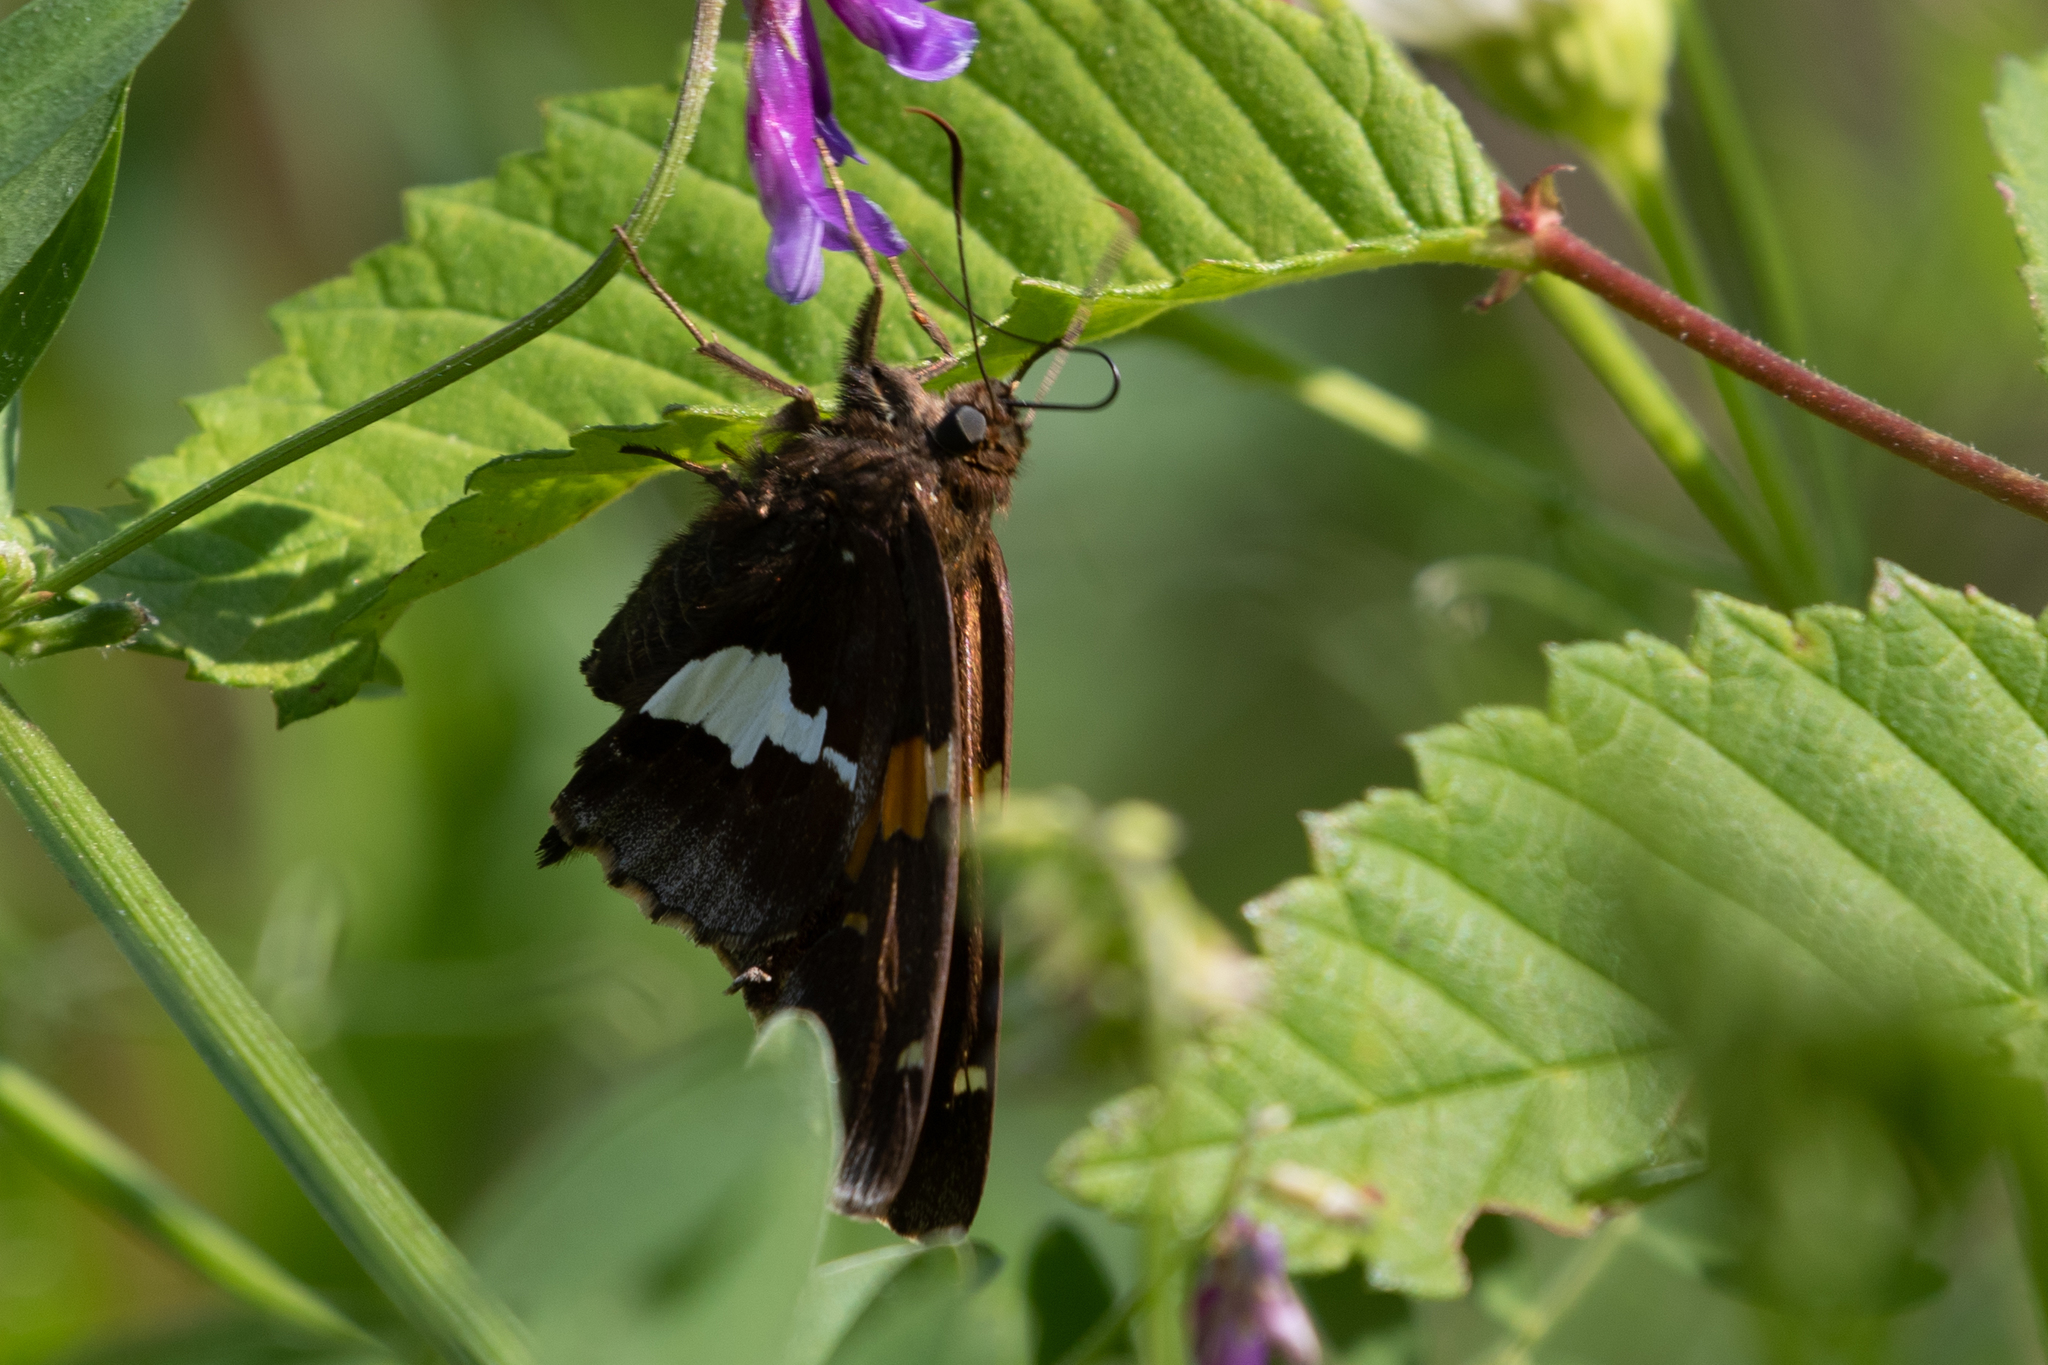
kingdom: Animalia
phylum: Arthropoda
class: Insecta
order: Lepidoptera
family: Hesperiidae
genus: Epargyreus
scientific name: Epargyreus clarus
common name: Silver-spotted skipper
